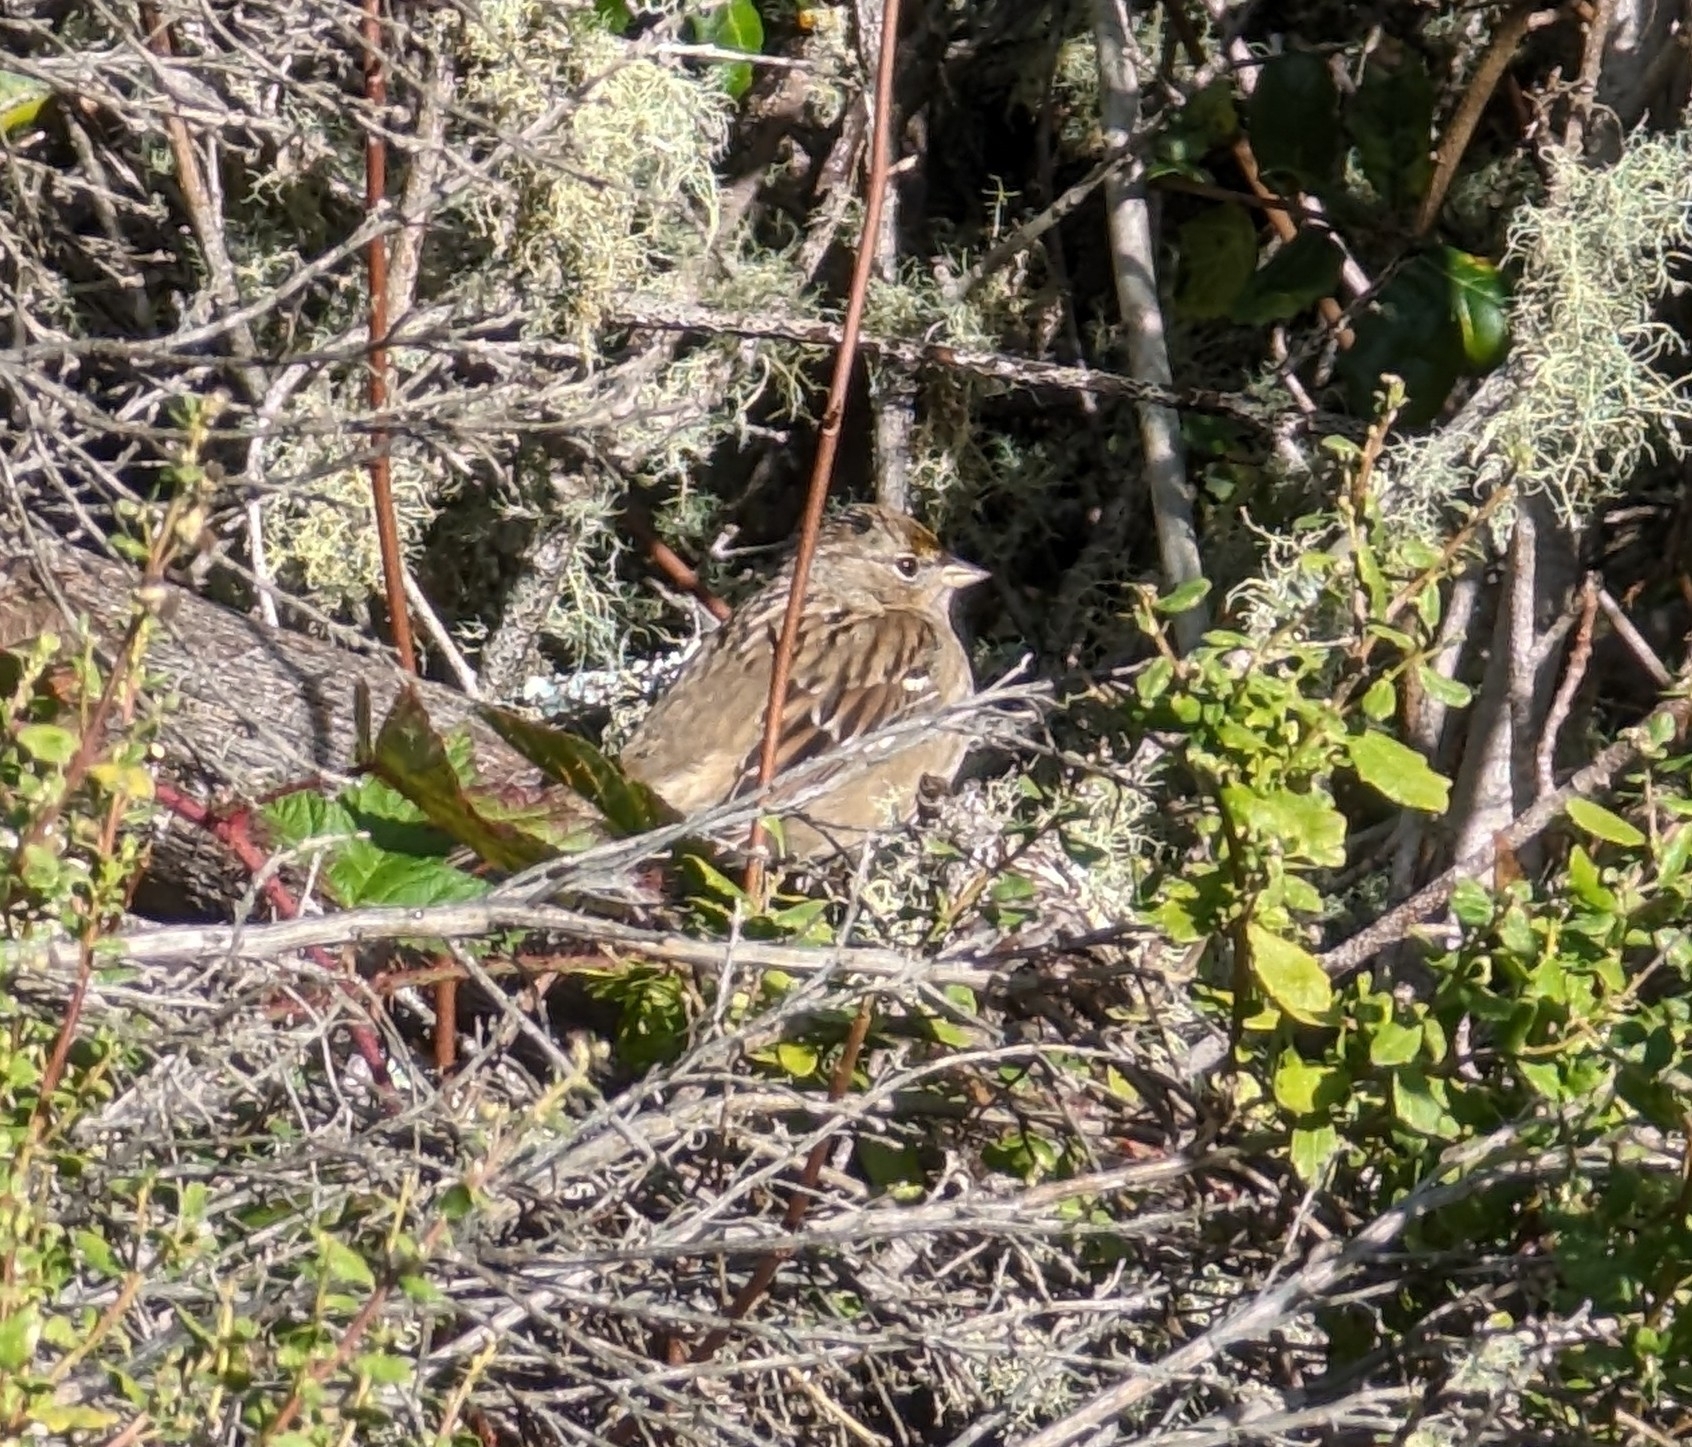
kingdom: Animalia
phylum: Chordata
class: Aves
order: Passeriformes
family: Passerellidae
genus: Zonotrichia
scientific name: Zonotrichia atricapilla
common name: Golden-crowned sparrow
